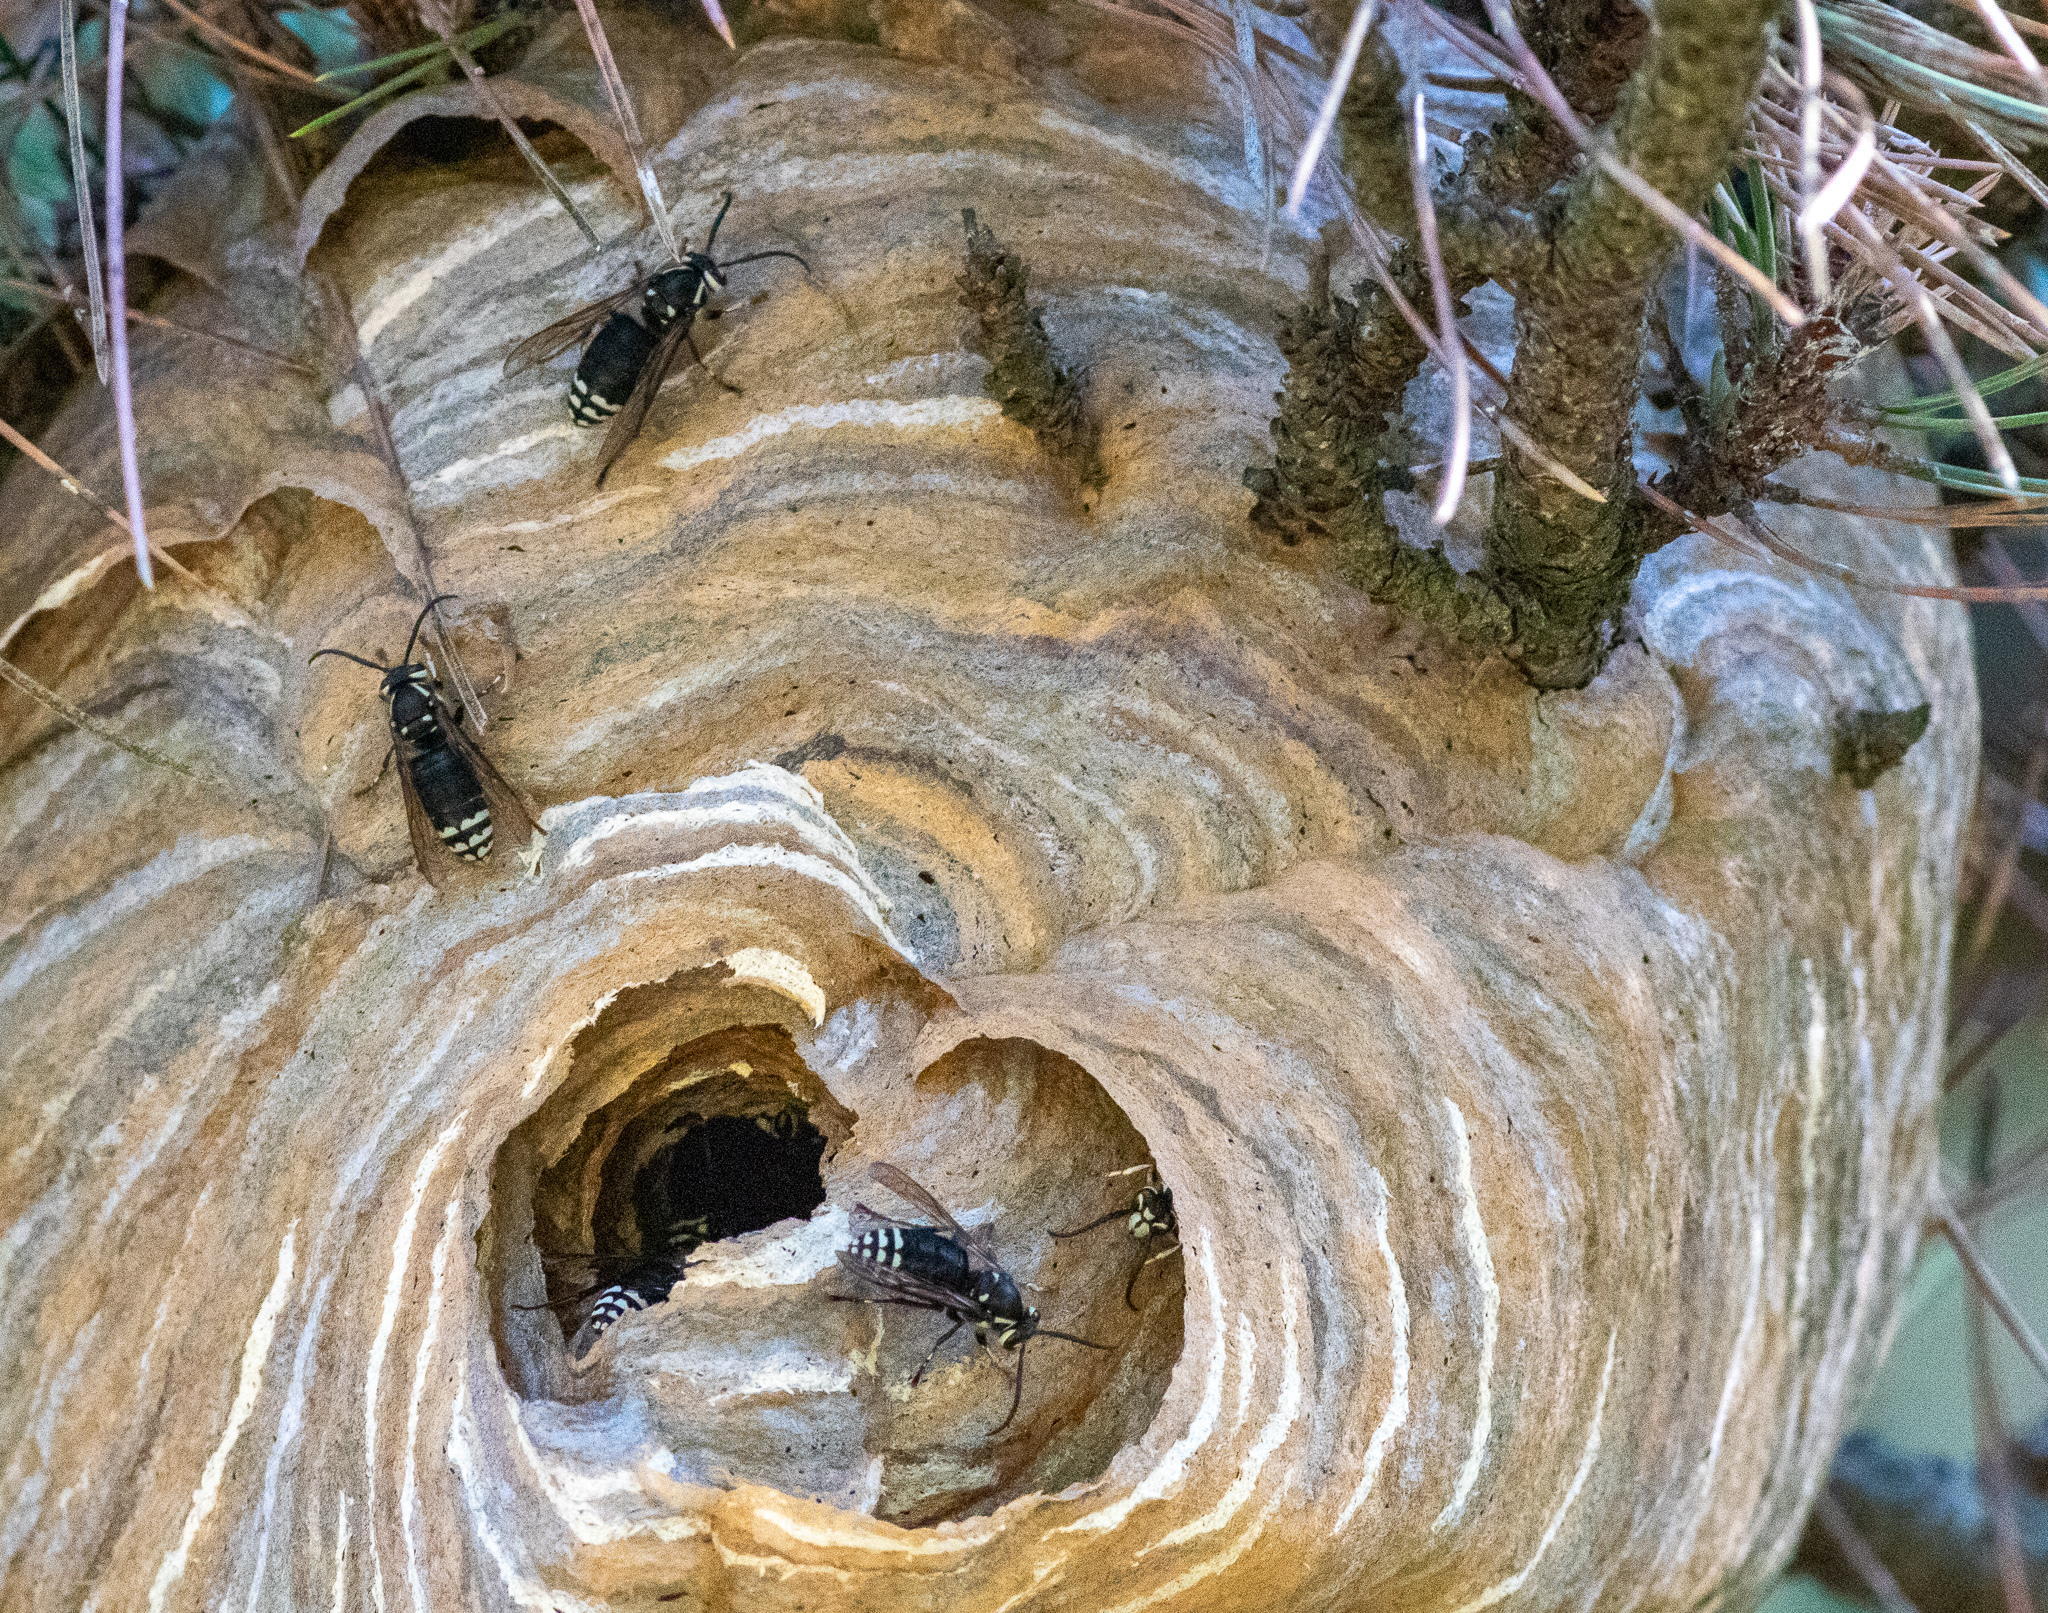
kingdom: Animalia
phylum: Arthropoda
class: Insecta
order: Hymenoptera
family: Vespidae
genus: Dolichovespula
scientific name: Dolichovespula maculata
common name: Bald-faced hornet
